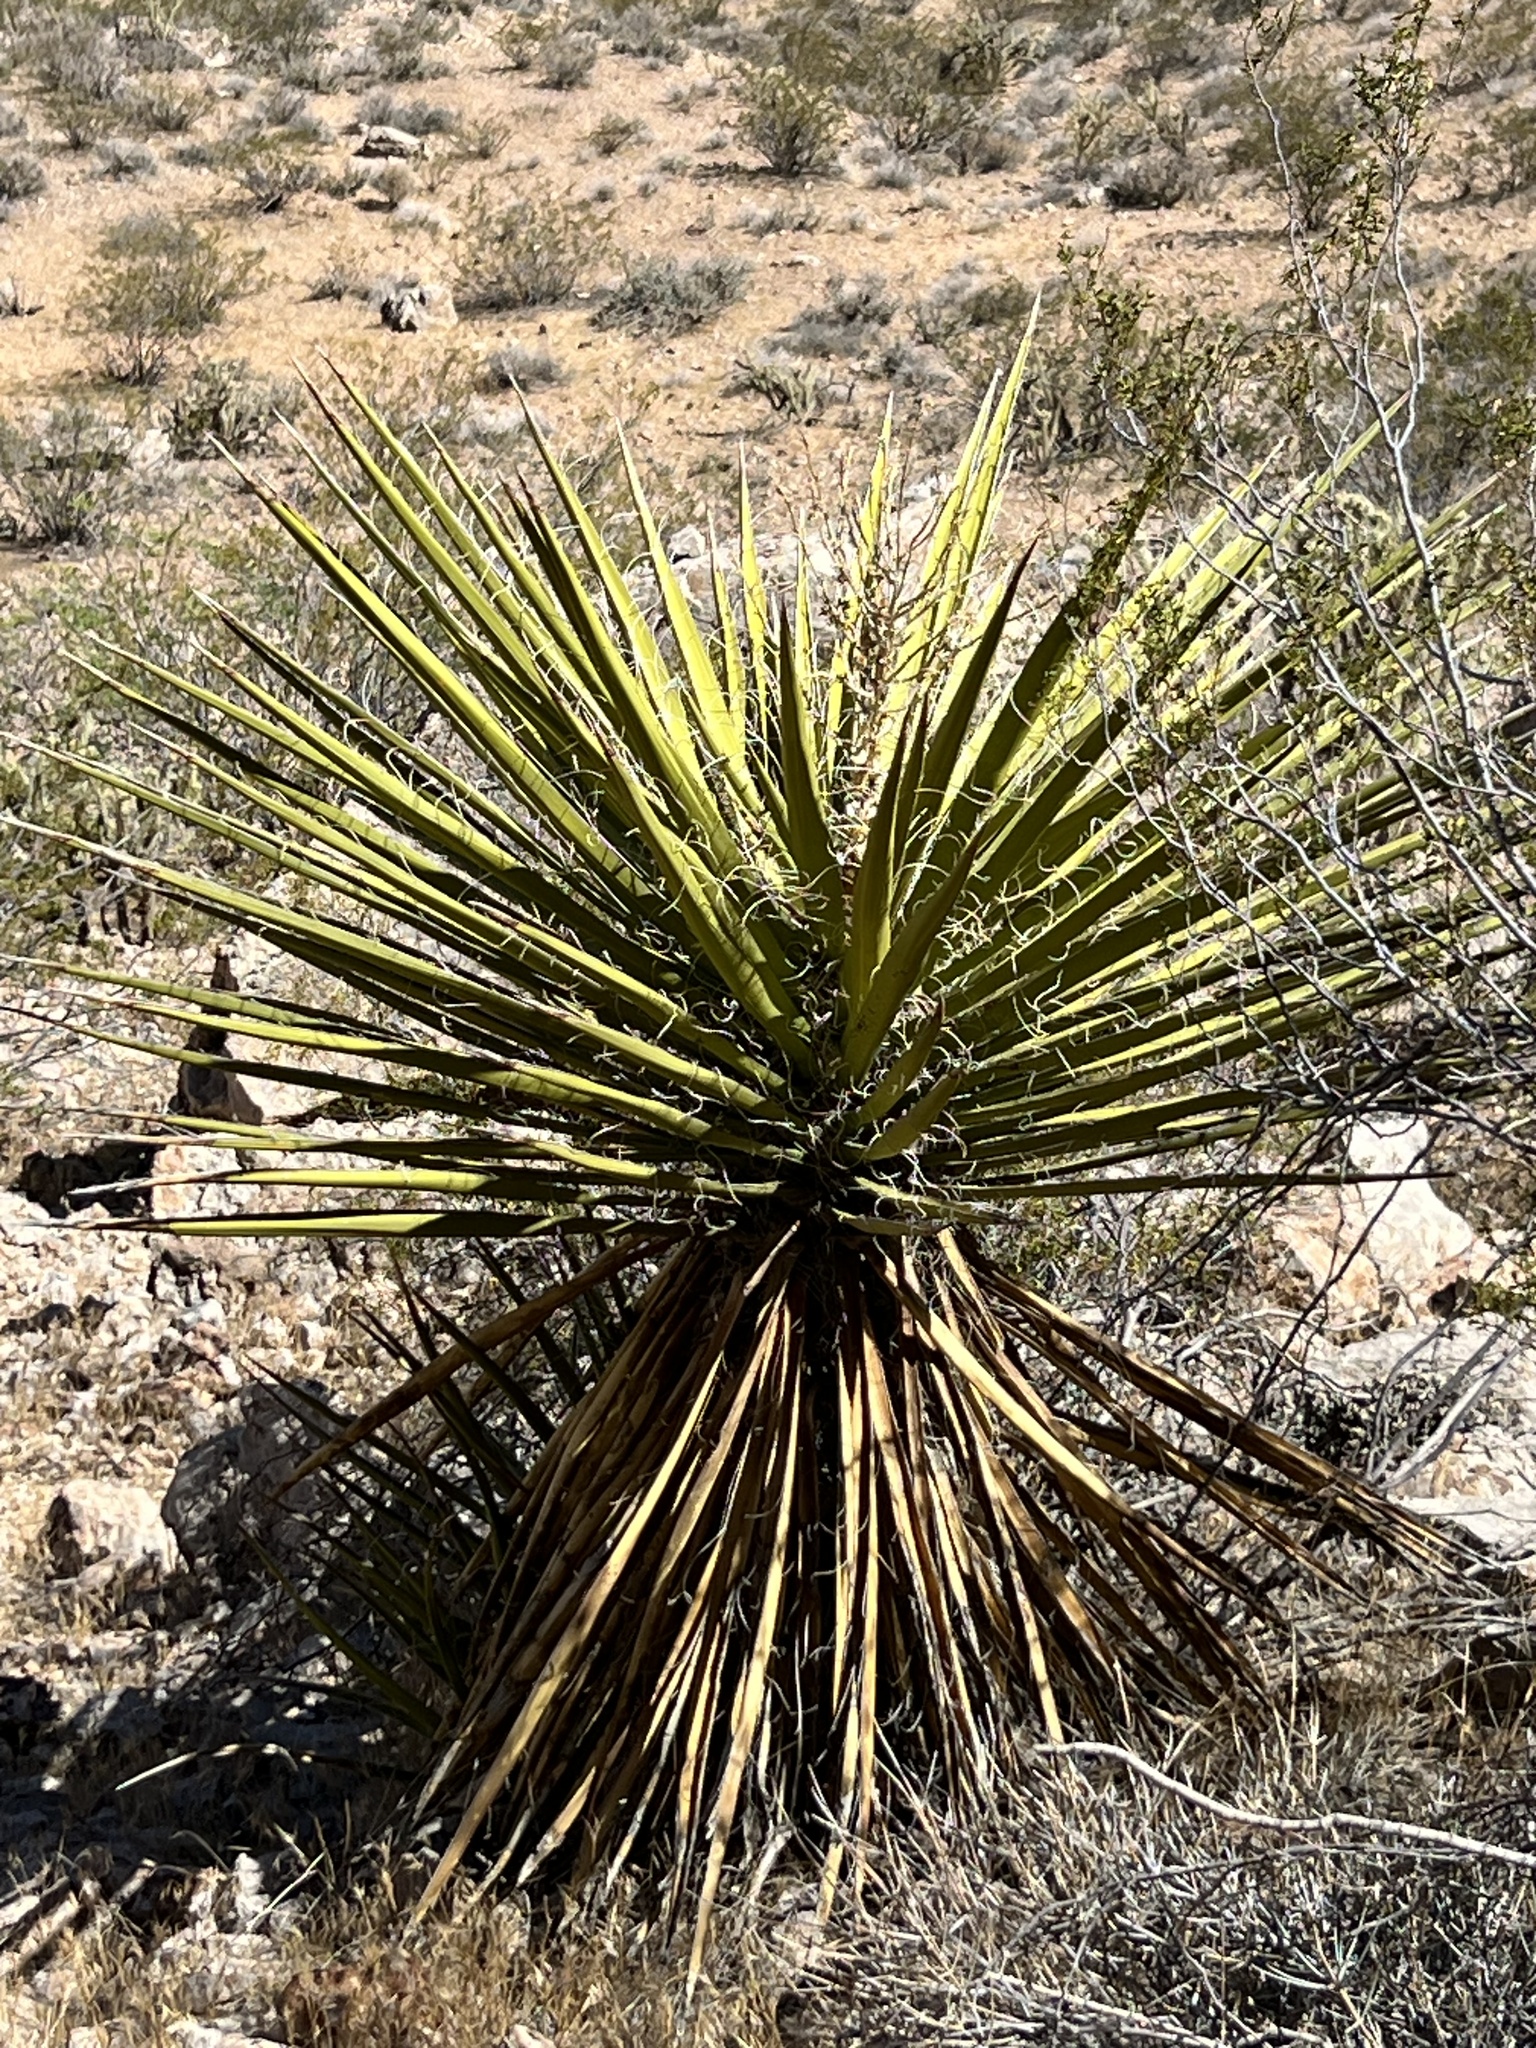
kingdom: Plantae
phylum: Tracheophyta
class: Liliopsida
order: Asparagales
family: Asparagaceae
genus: Yucca
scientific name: Yucca schidigera
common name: Mojave yucca
